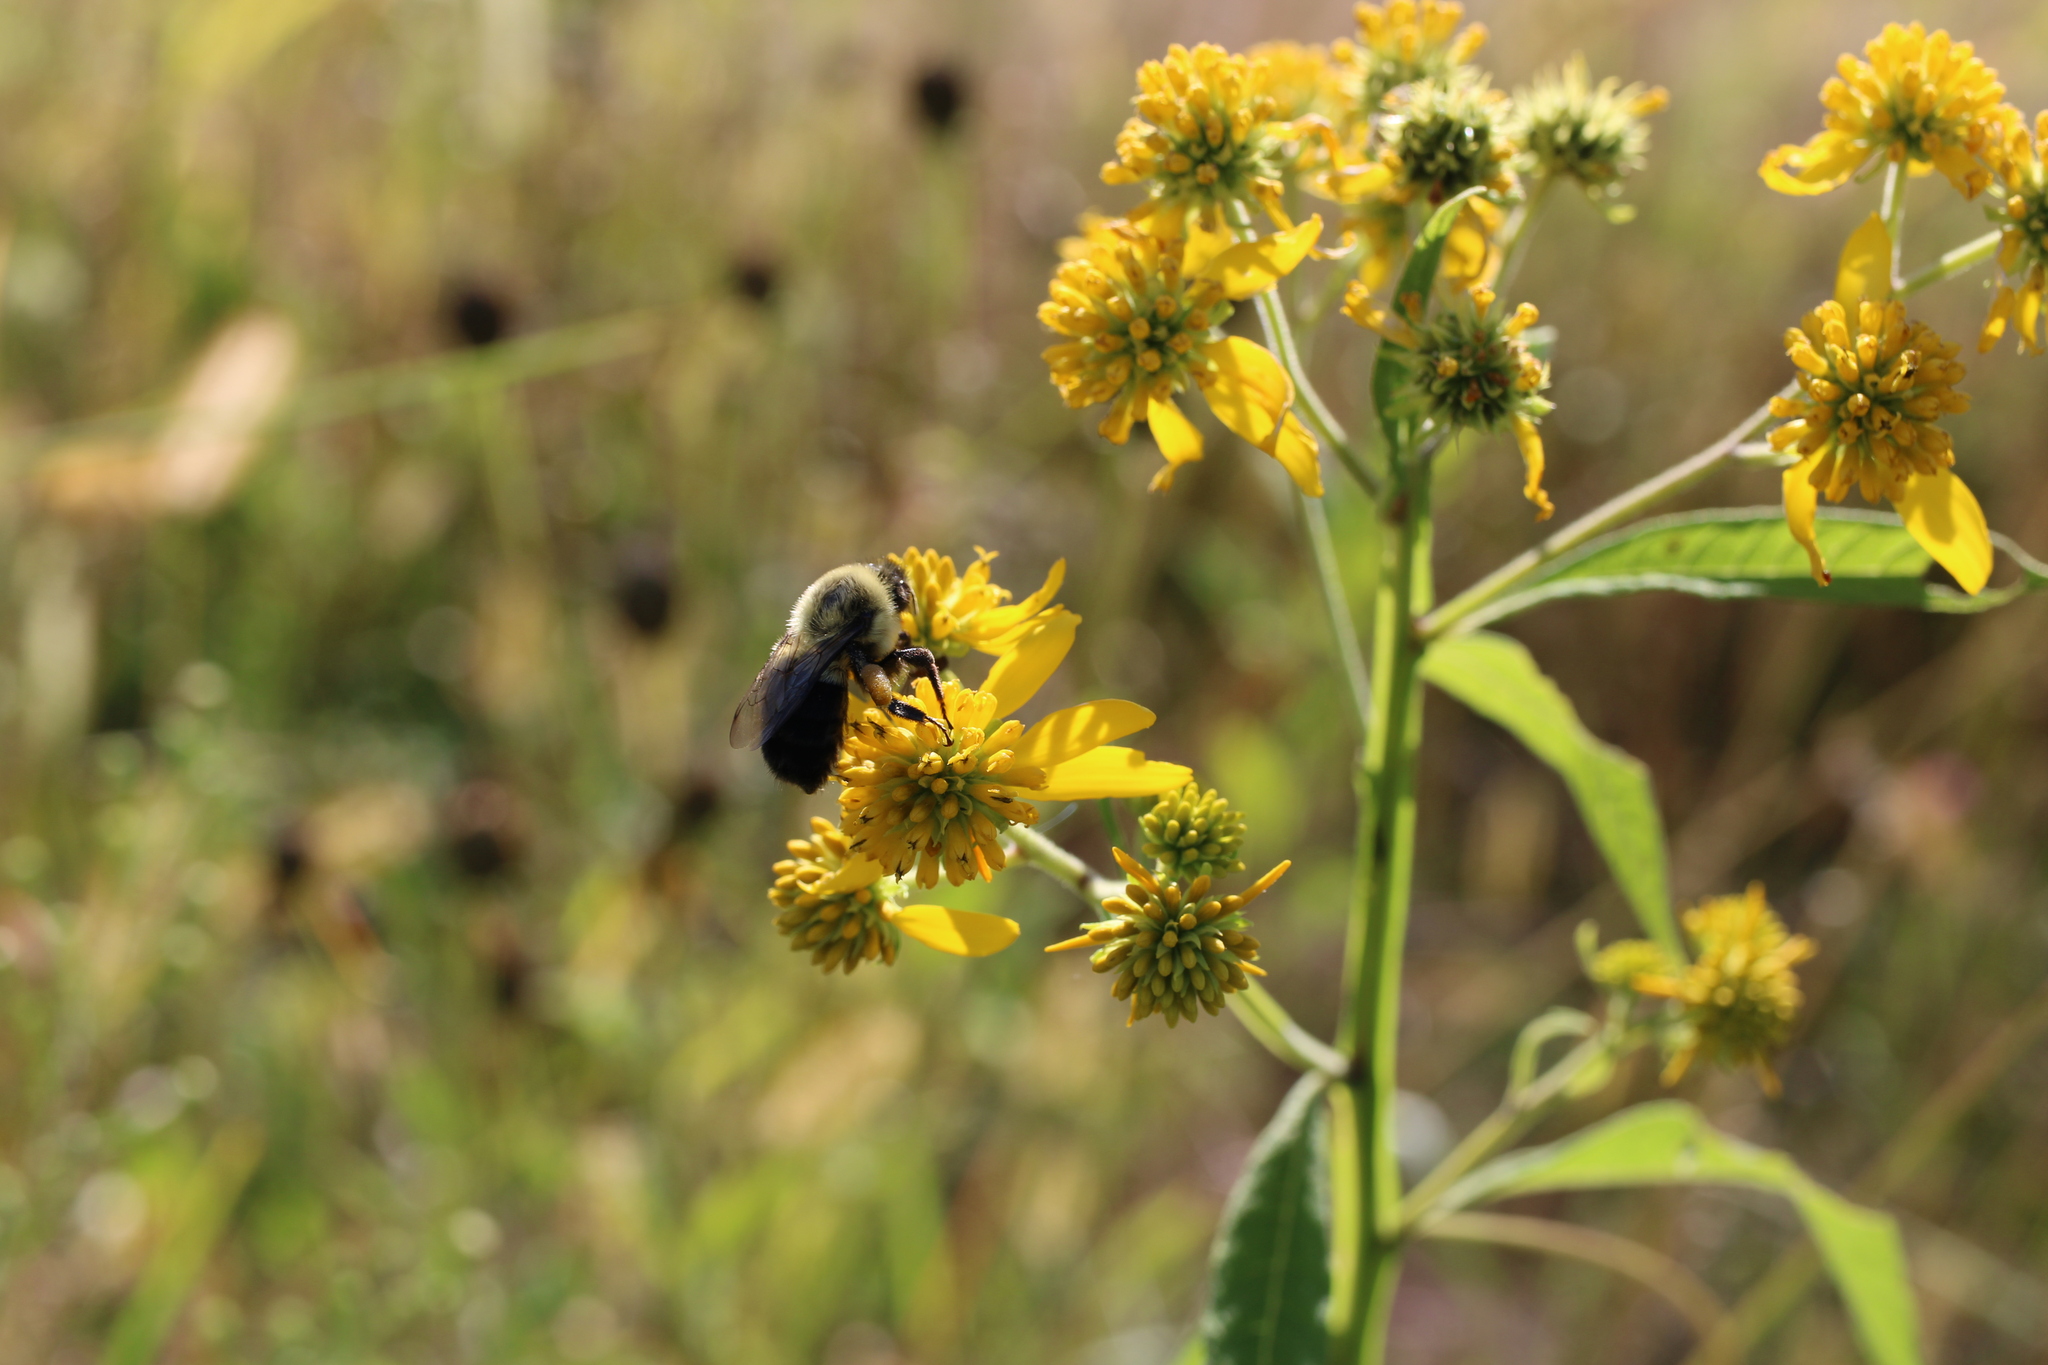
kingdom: Animalia
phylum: Arthropoda
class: Insecta
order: Hymenoptera
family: Apidae
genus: Bombus
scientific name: Bombus impatiens
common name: Common eastern bumble bee
